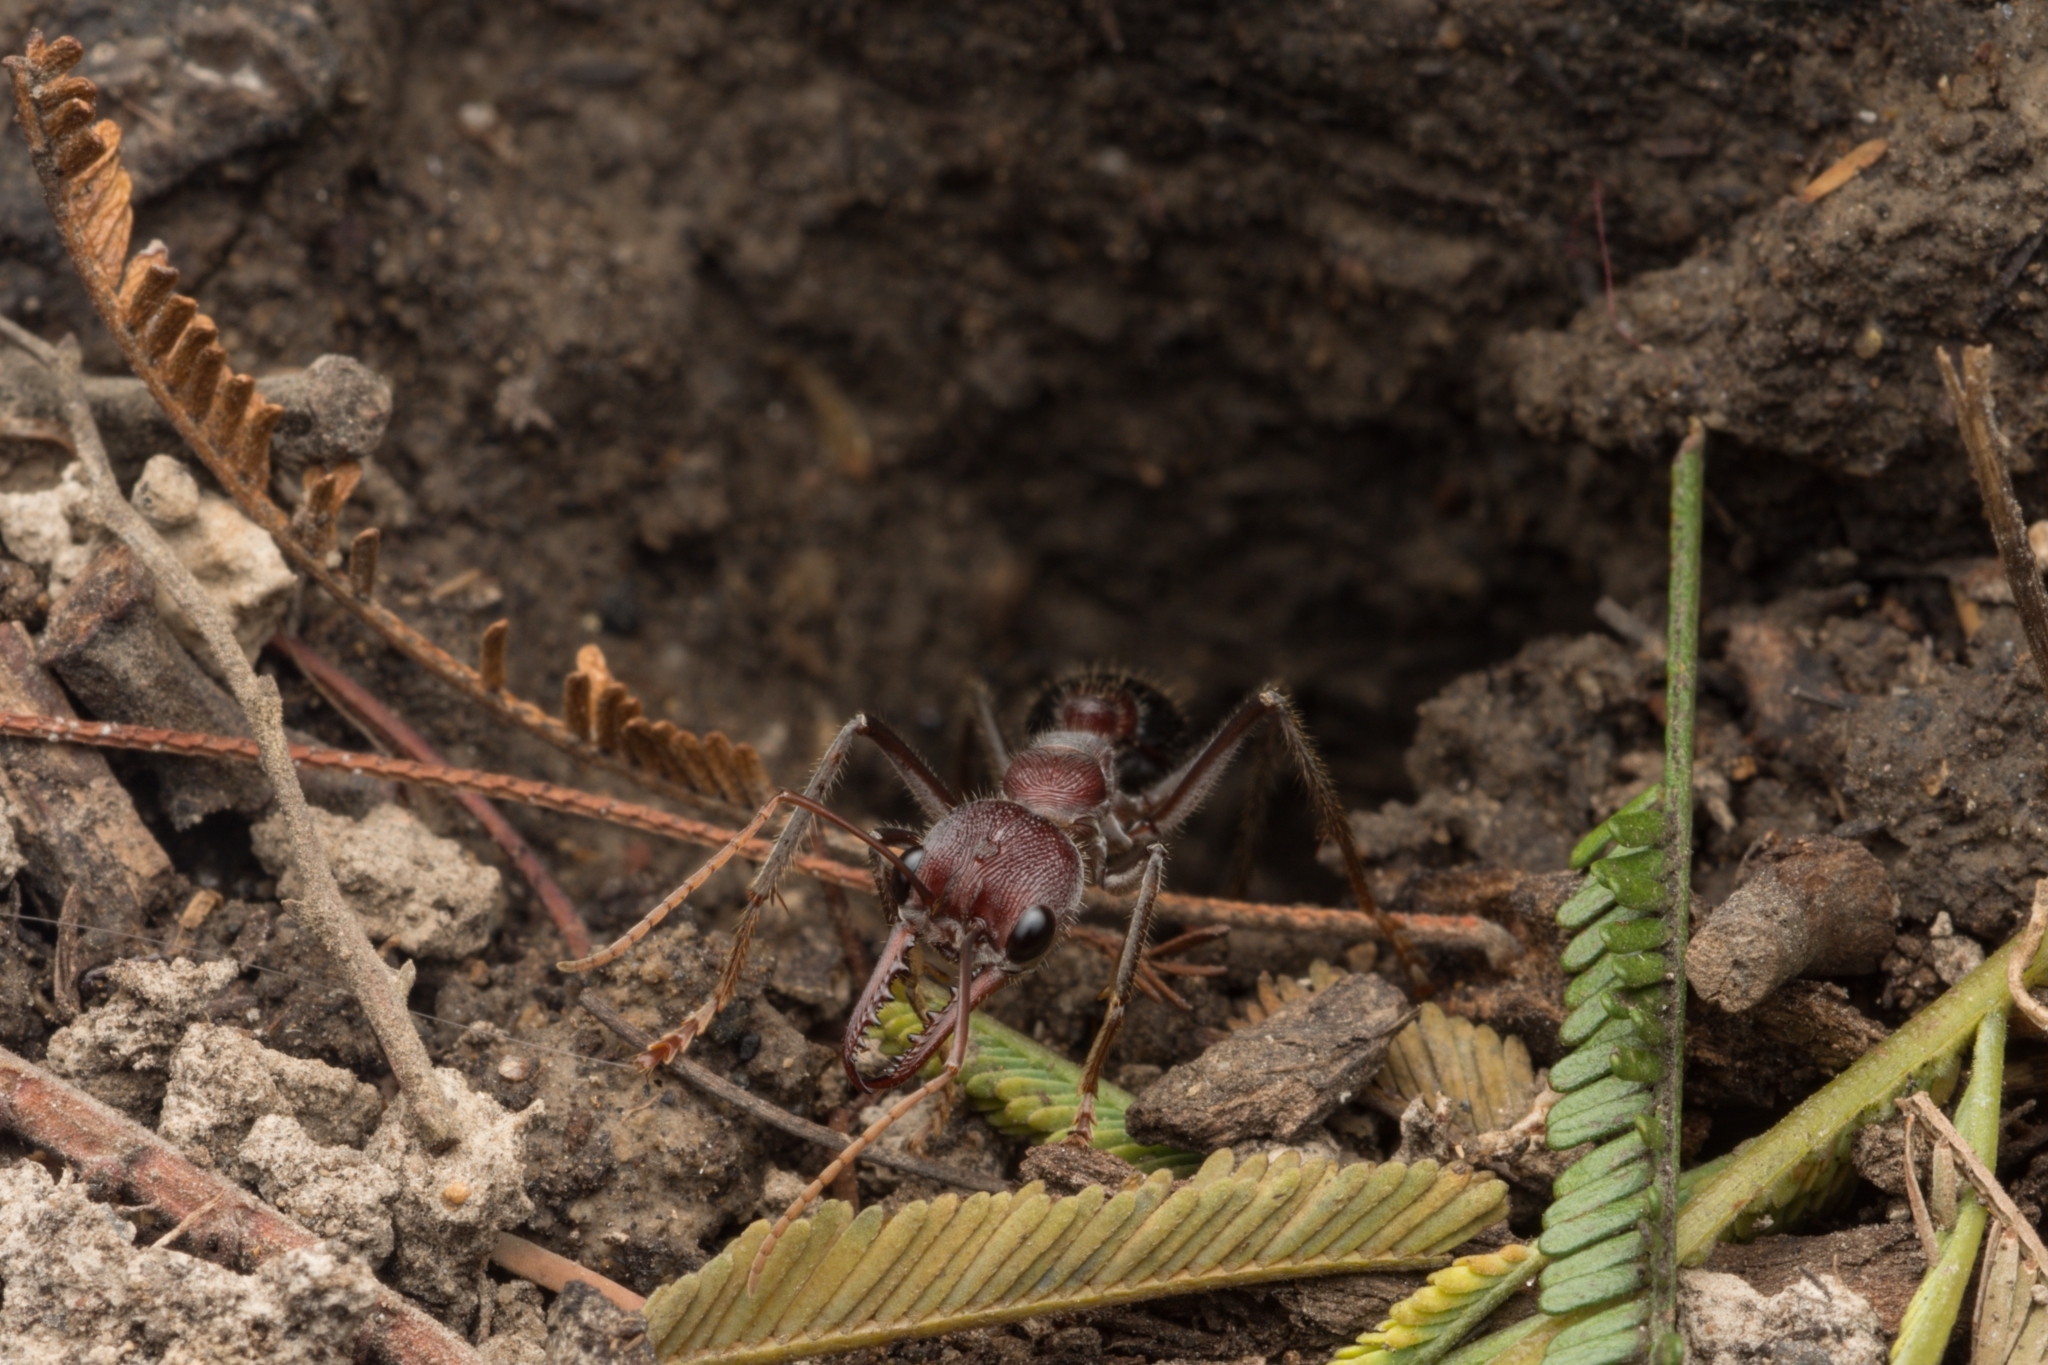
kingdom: Animalia
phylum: Arthropoda
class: Insecta
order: Hymenoptera
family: Formicidae
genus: Myrmecia
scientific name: Myrmecia simillima
